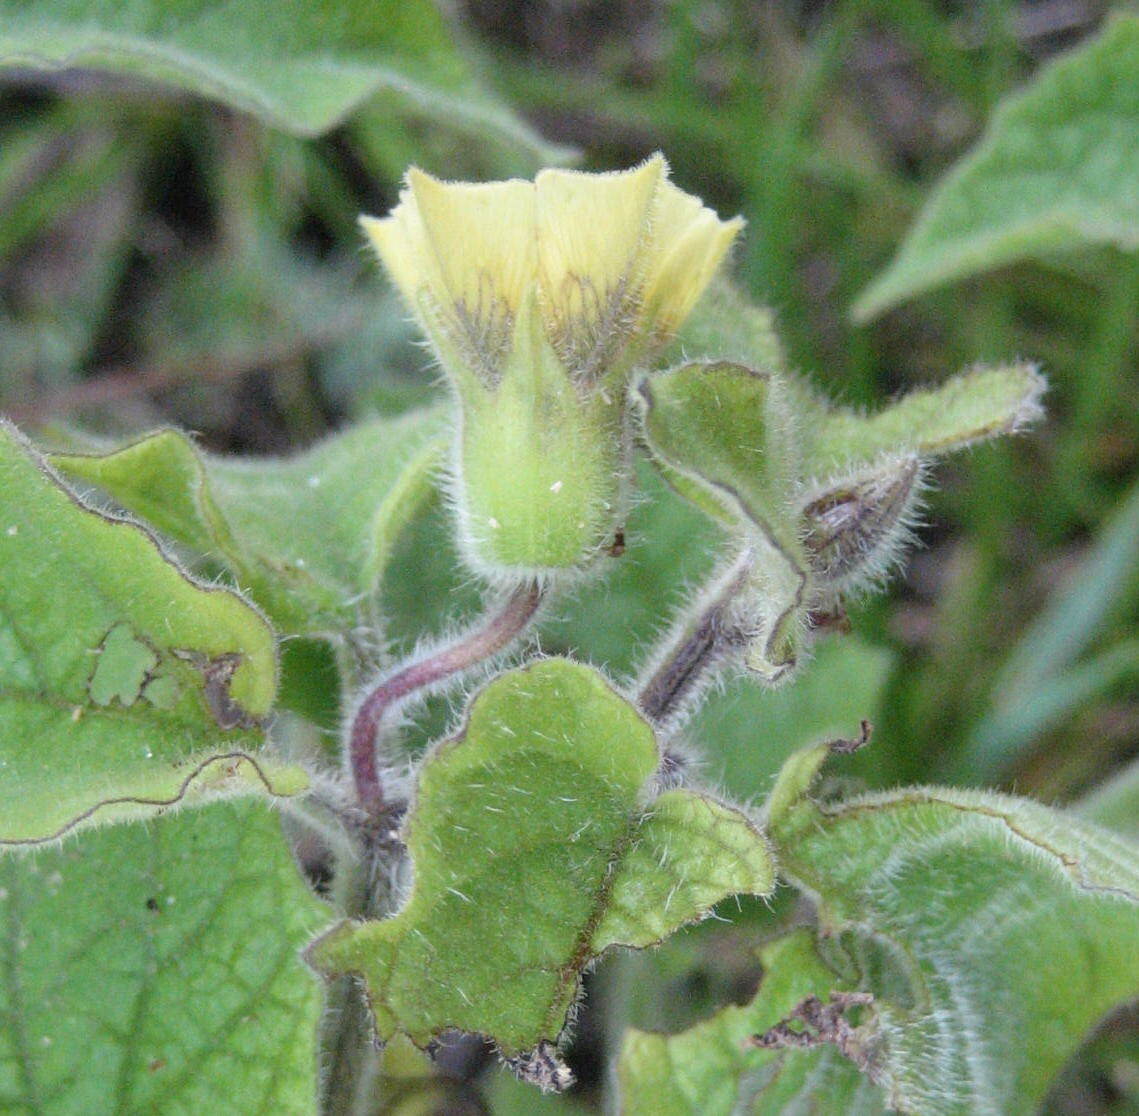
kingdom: Plantae
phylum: Tracheophyta
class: Magnoliopsida
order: Solanales
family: Solanaceae
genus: Physalis
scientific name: Physalis heterophylla
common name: Clammy ground-cherry
